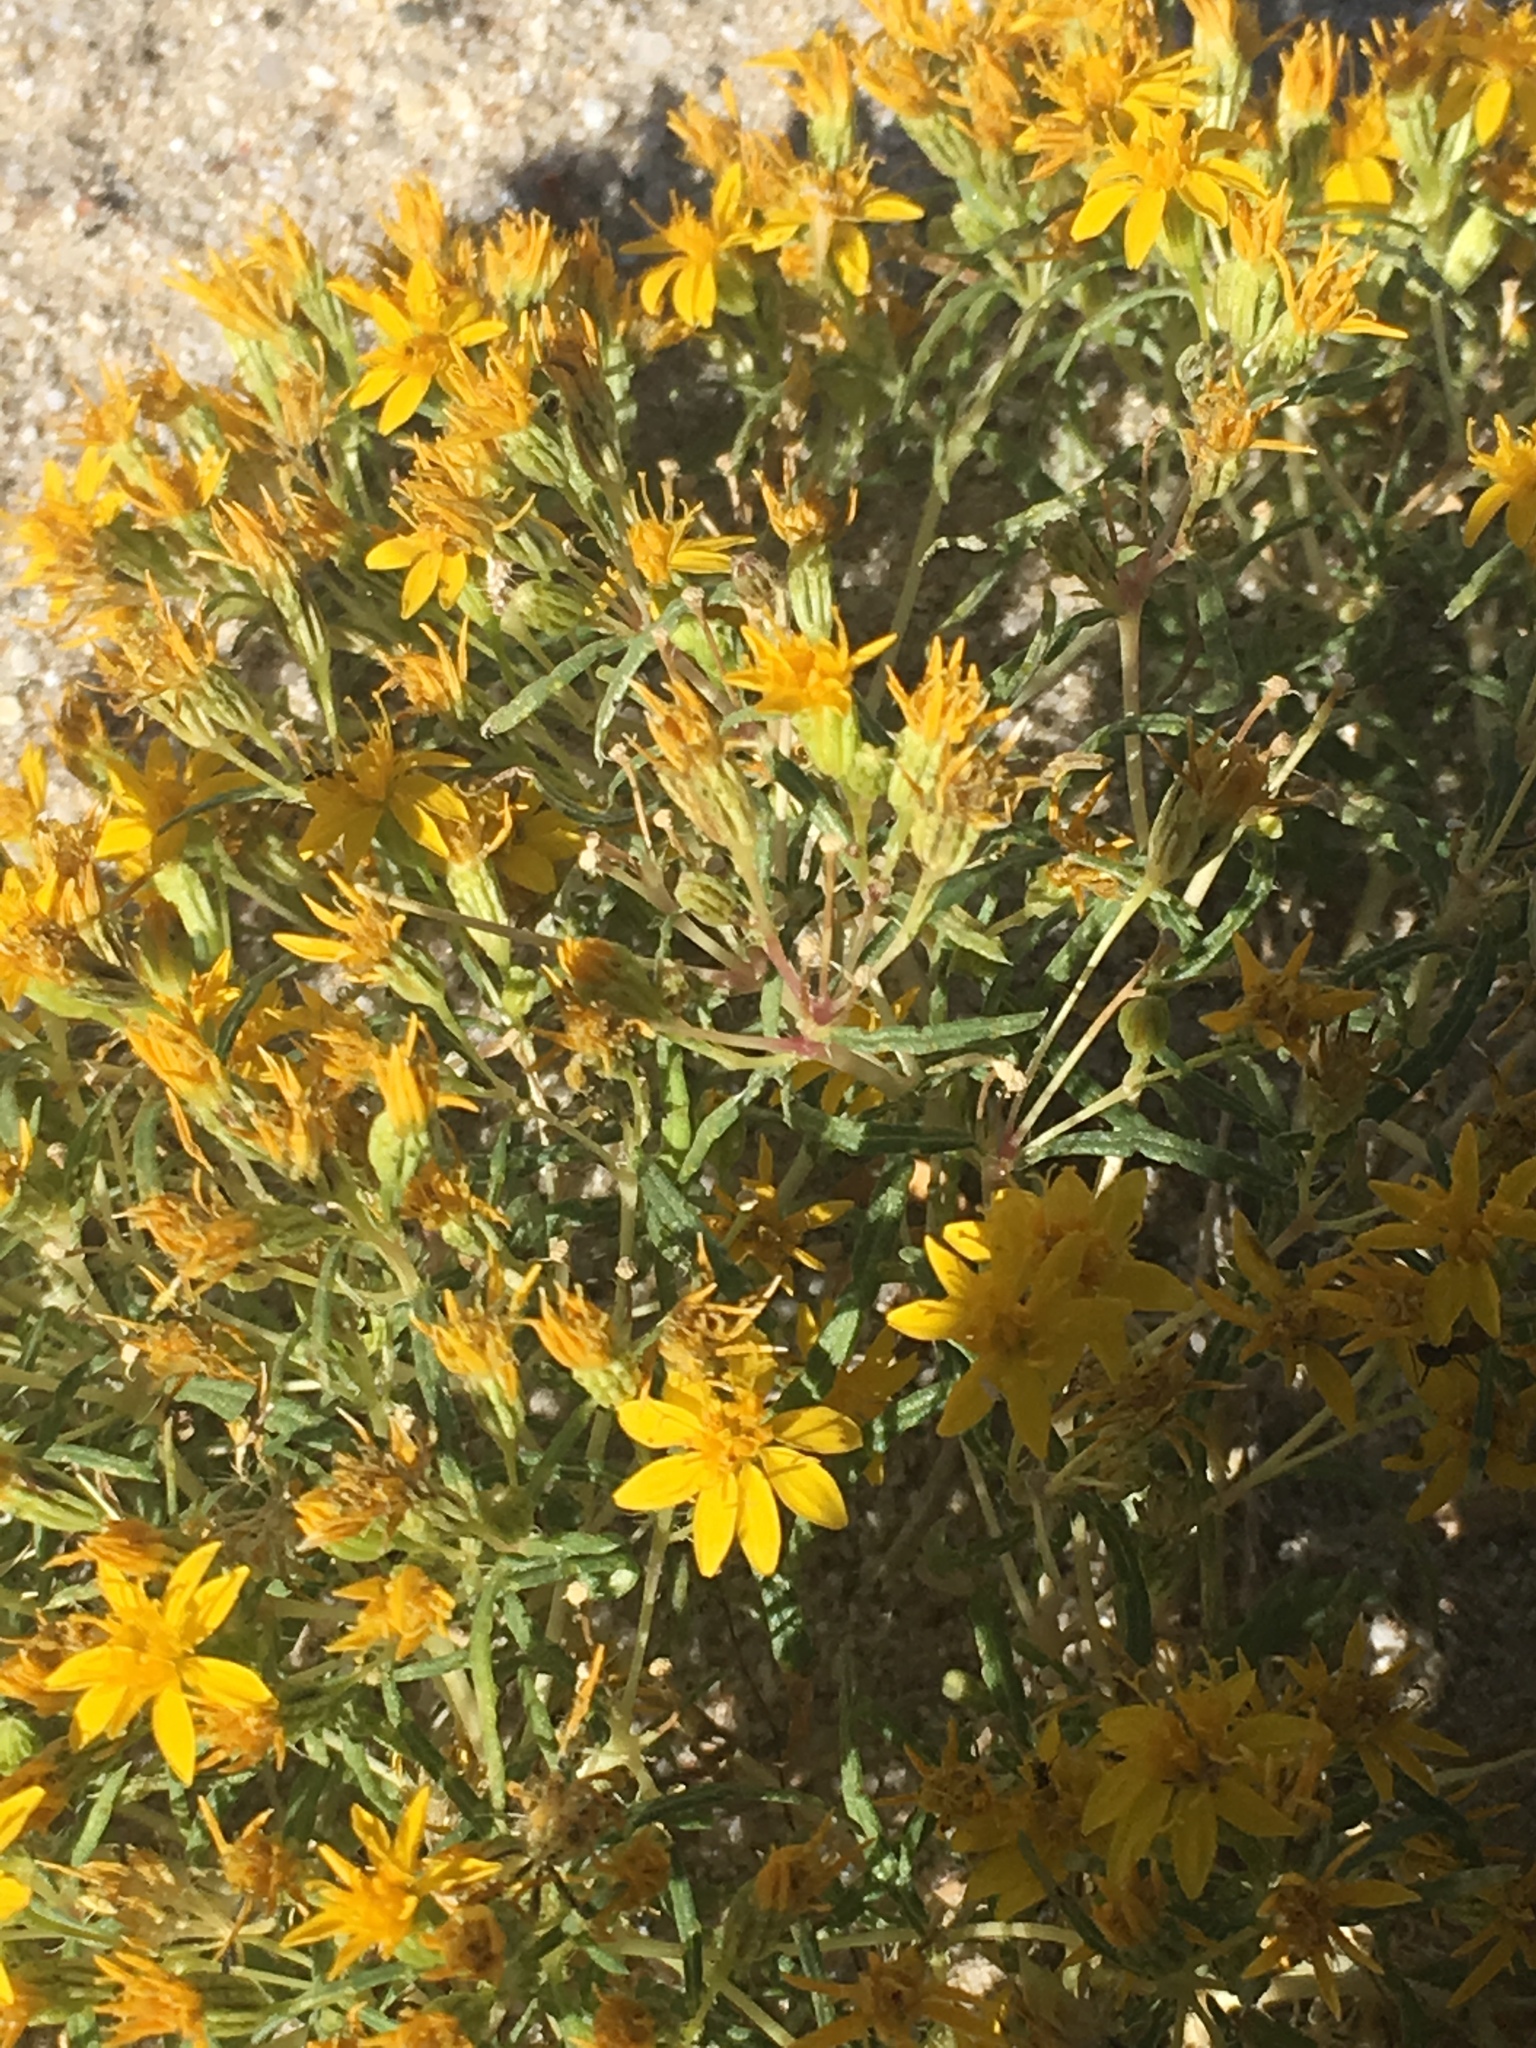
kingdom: Plantae
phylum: Tracheophyta
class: Magnoliopsida
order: Asterales
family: Asteraceae
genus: Pectis
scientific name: Pectis papposa
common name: Many-bristle chinchweed
